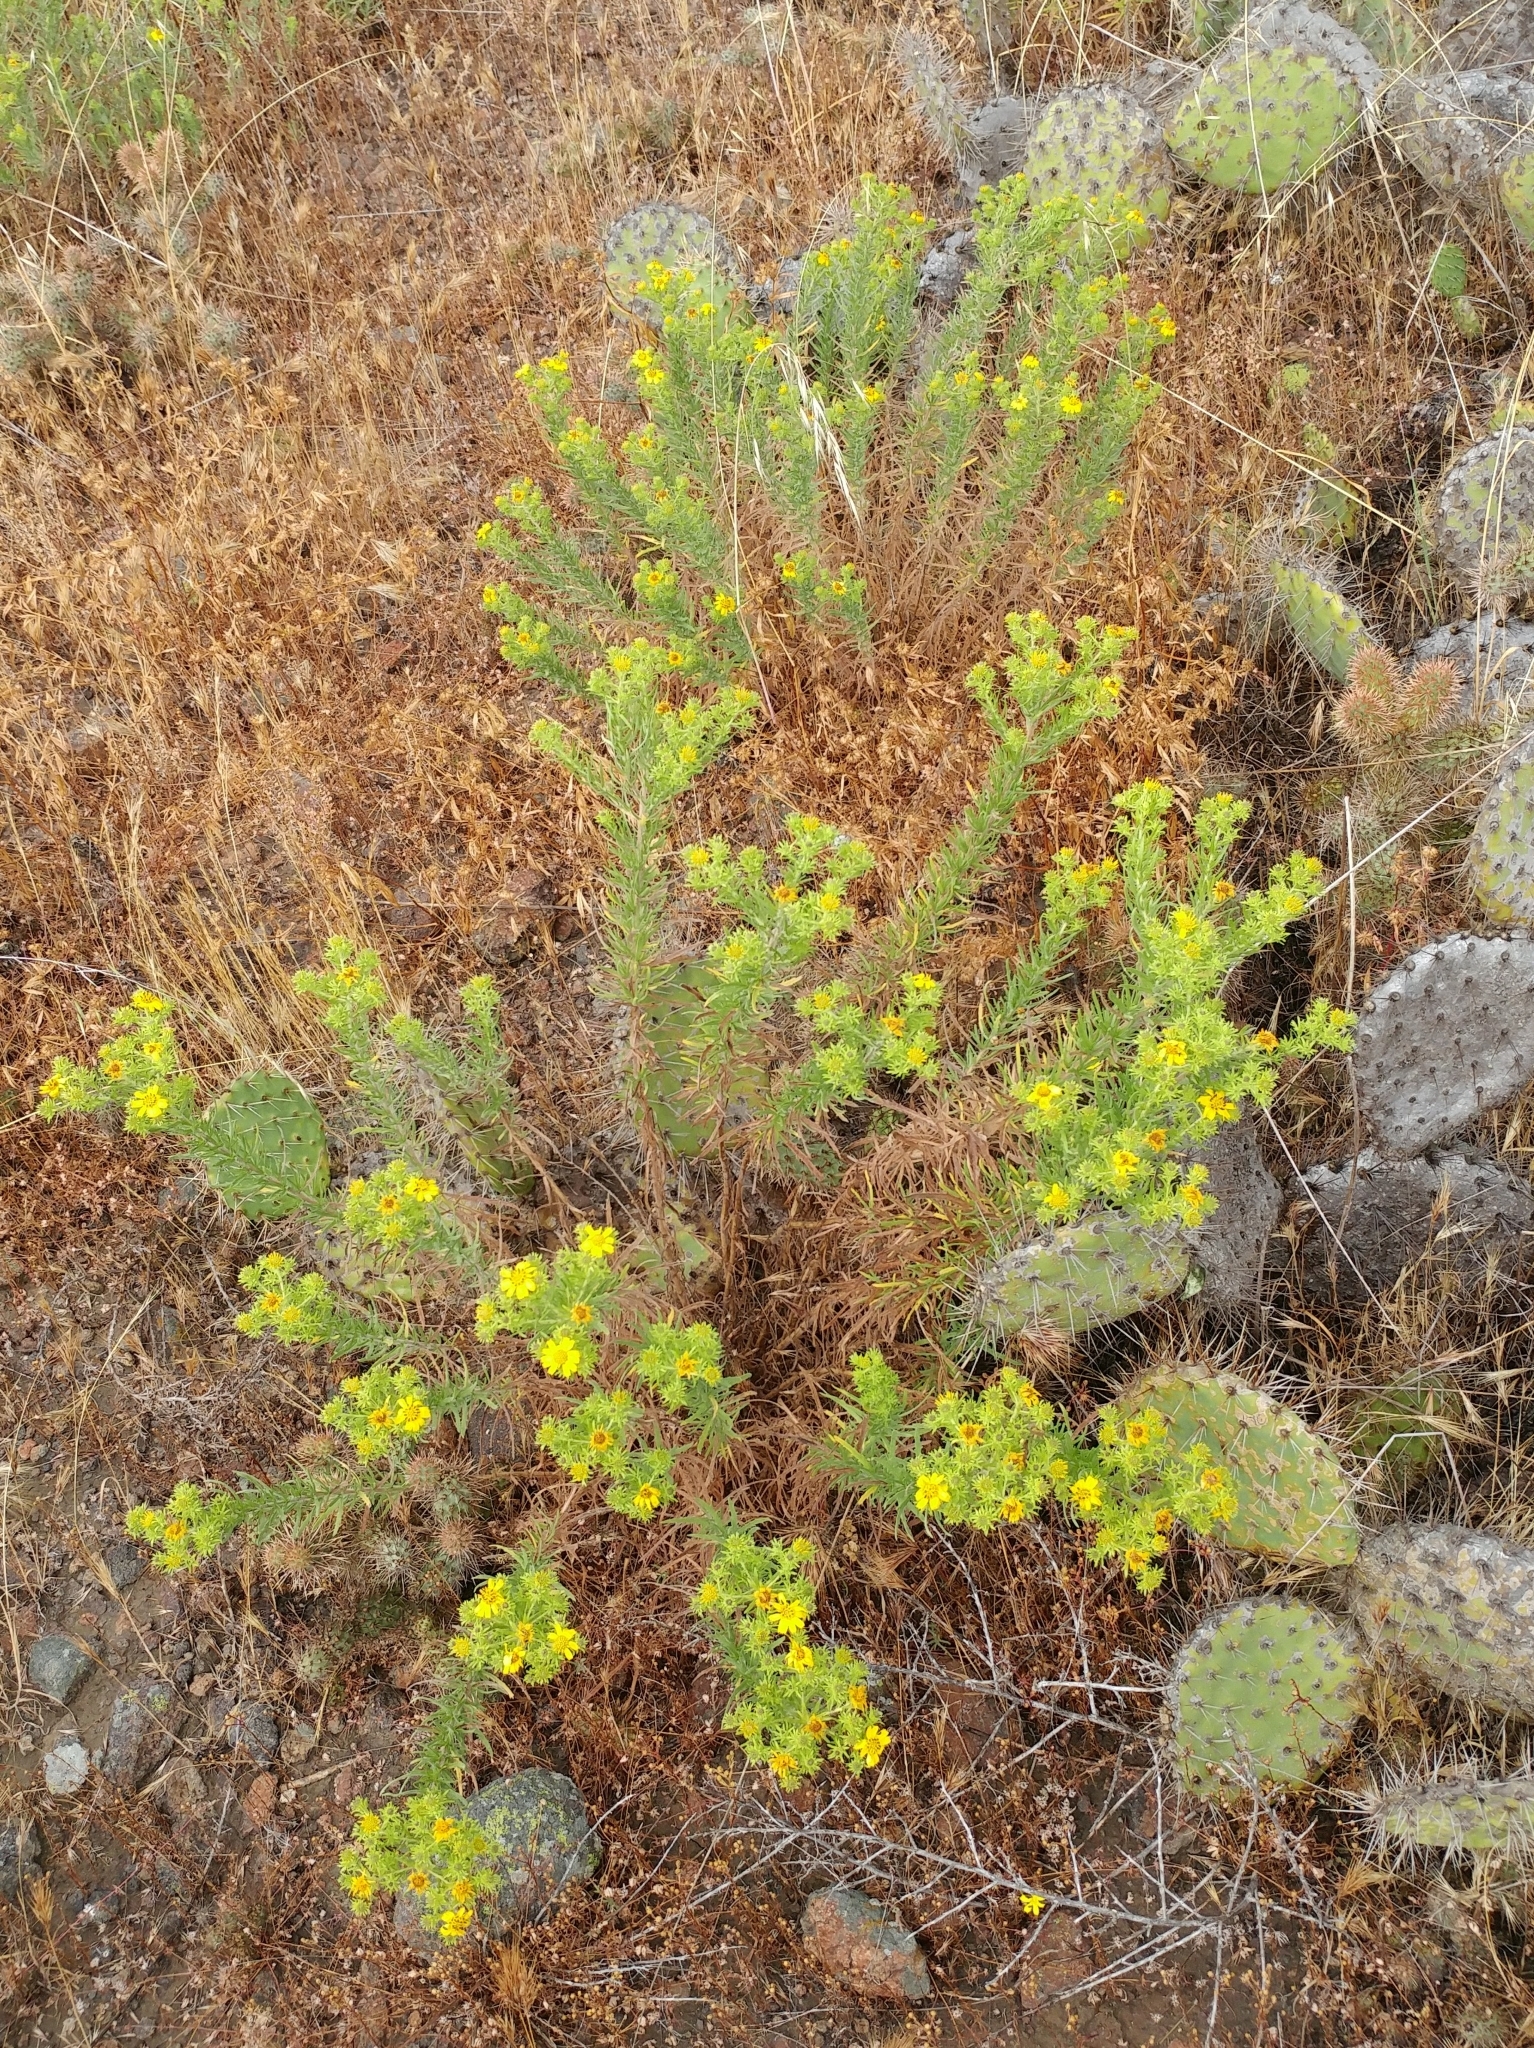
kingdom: Plantae
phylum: Tracheophyta
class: Magnoliopsida
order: Asterales
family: Asteraceae
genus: Deinandra
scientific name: Deinandra clementina
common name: Island tarplant
